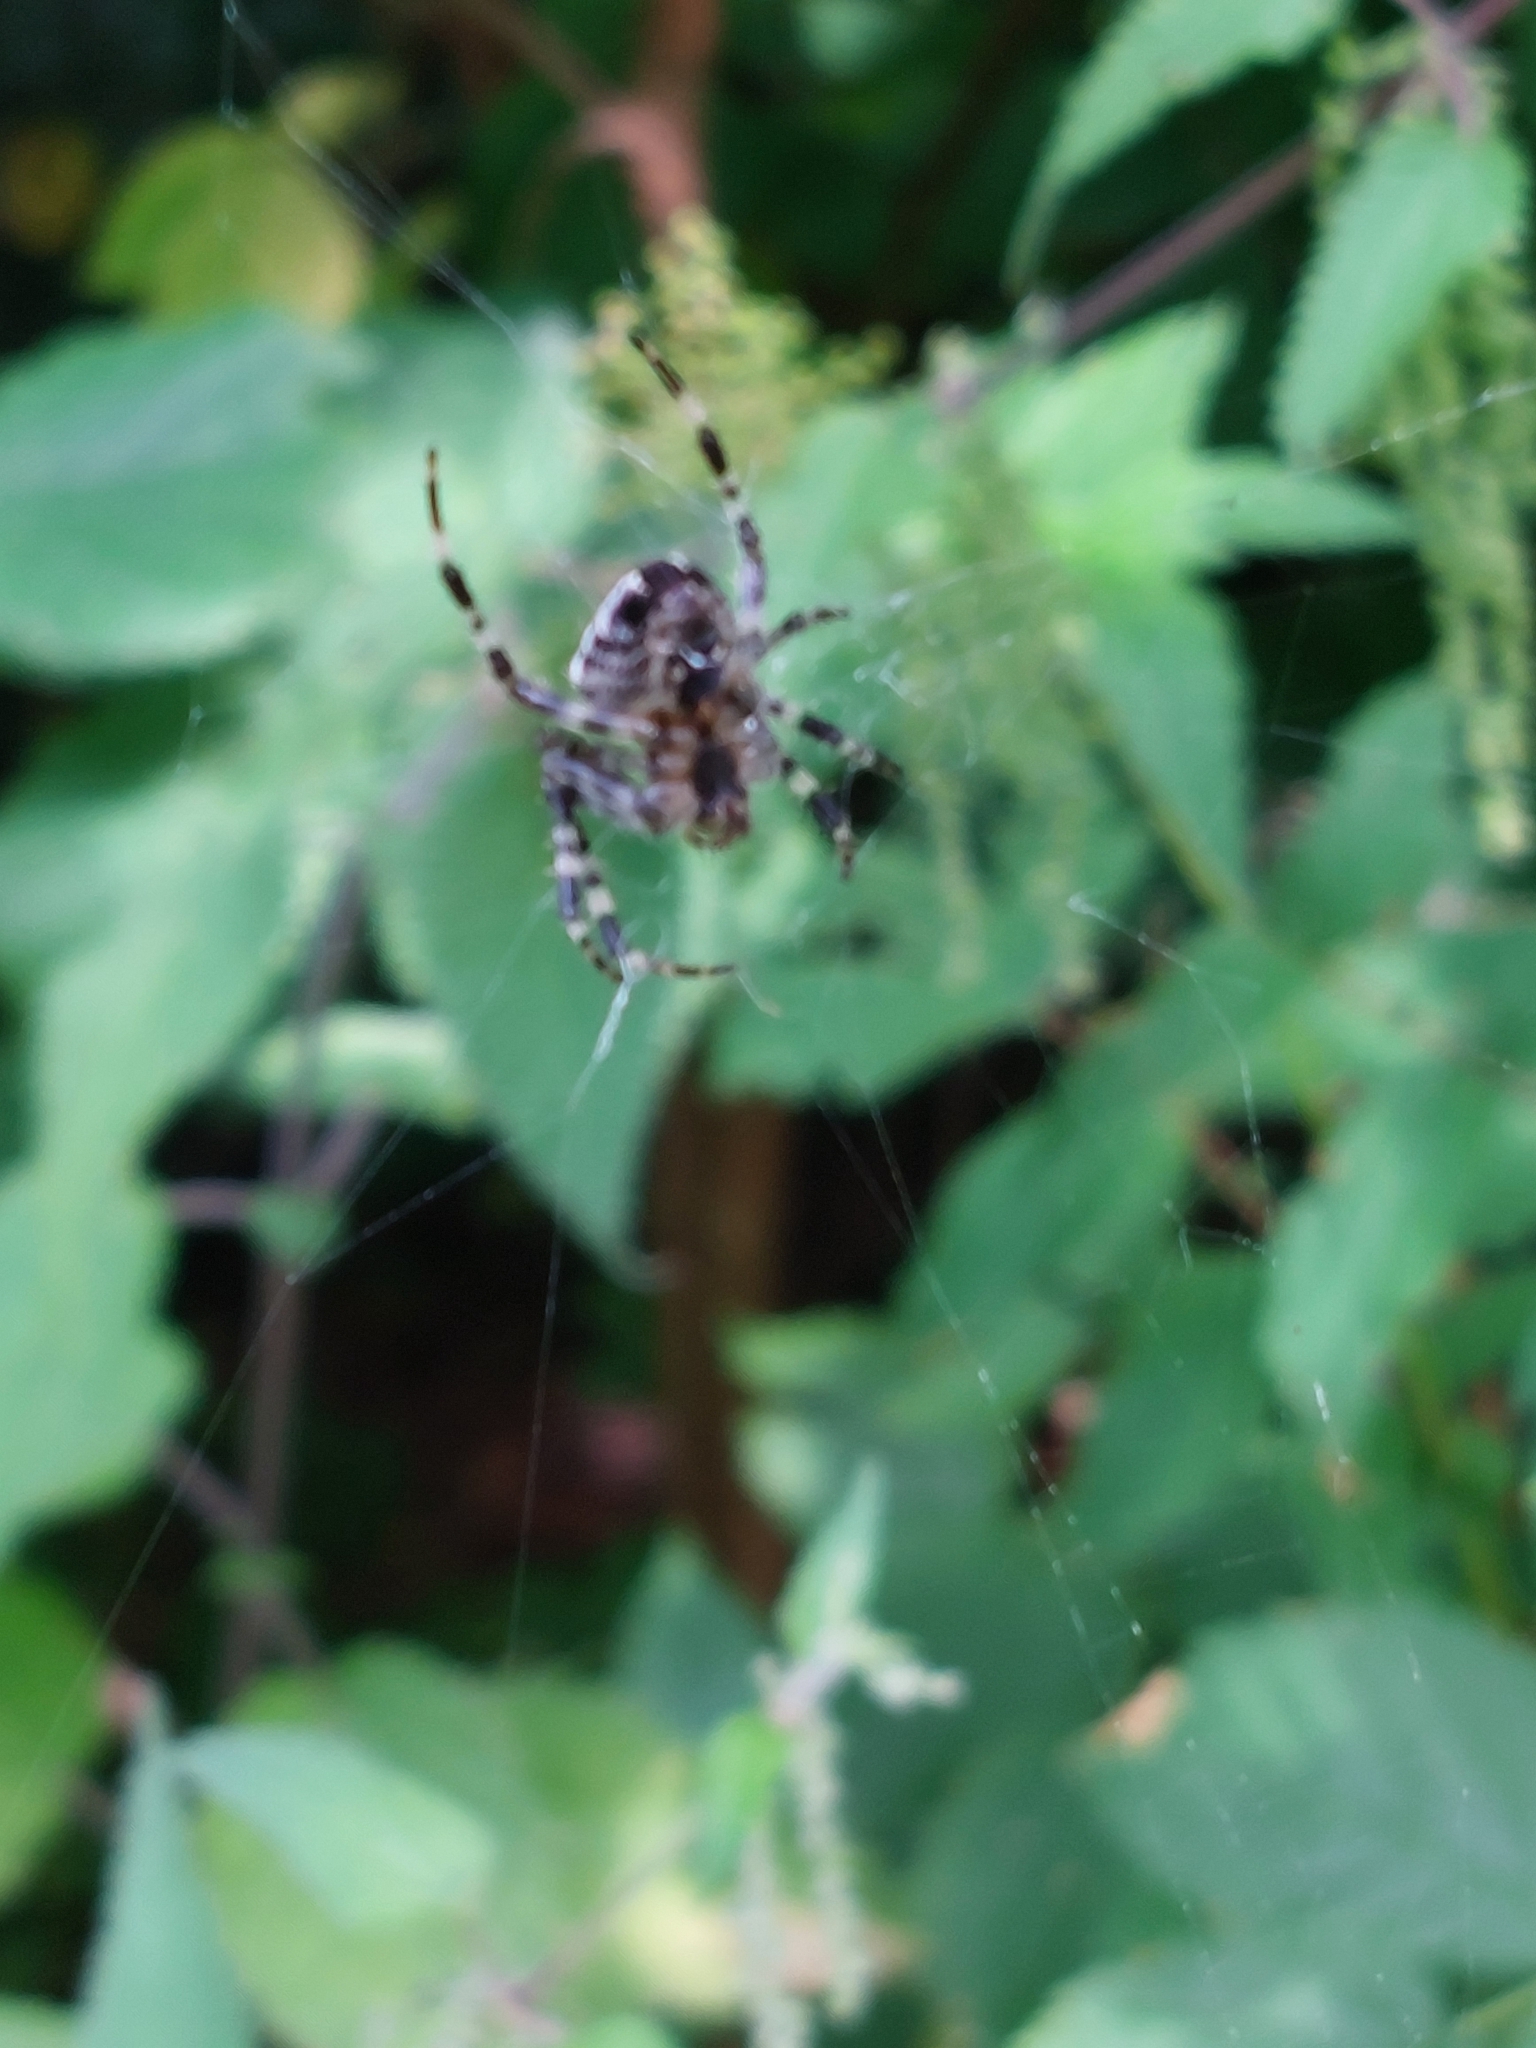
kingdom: Animalia
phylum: Arthropoda
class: Arachnida
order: Araneae
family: Araneidae
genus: Araneus
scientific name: Araneus diadematus
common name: Cross orbweaver
